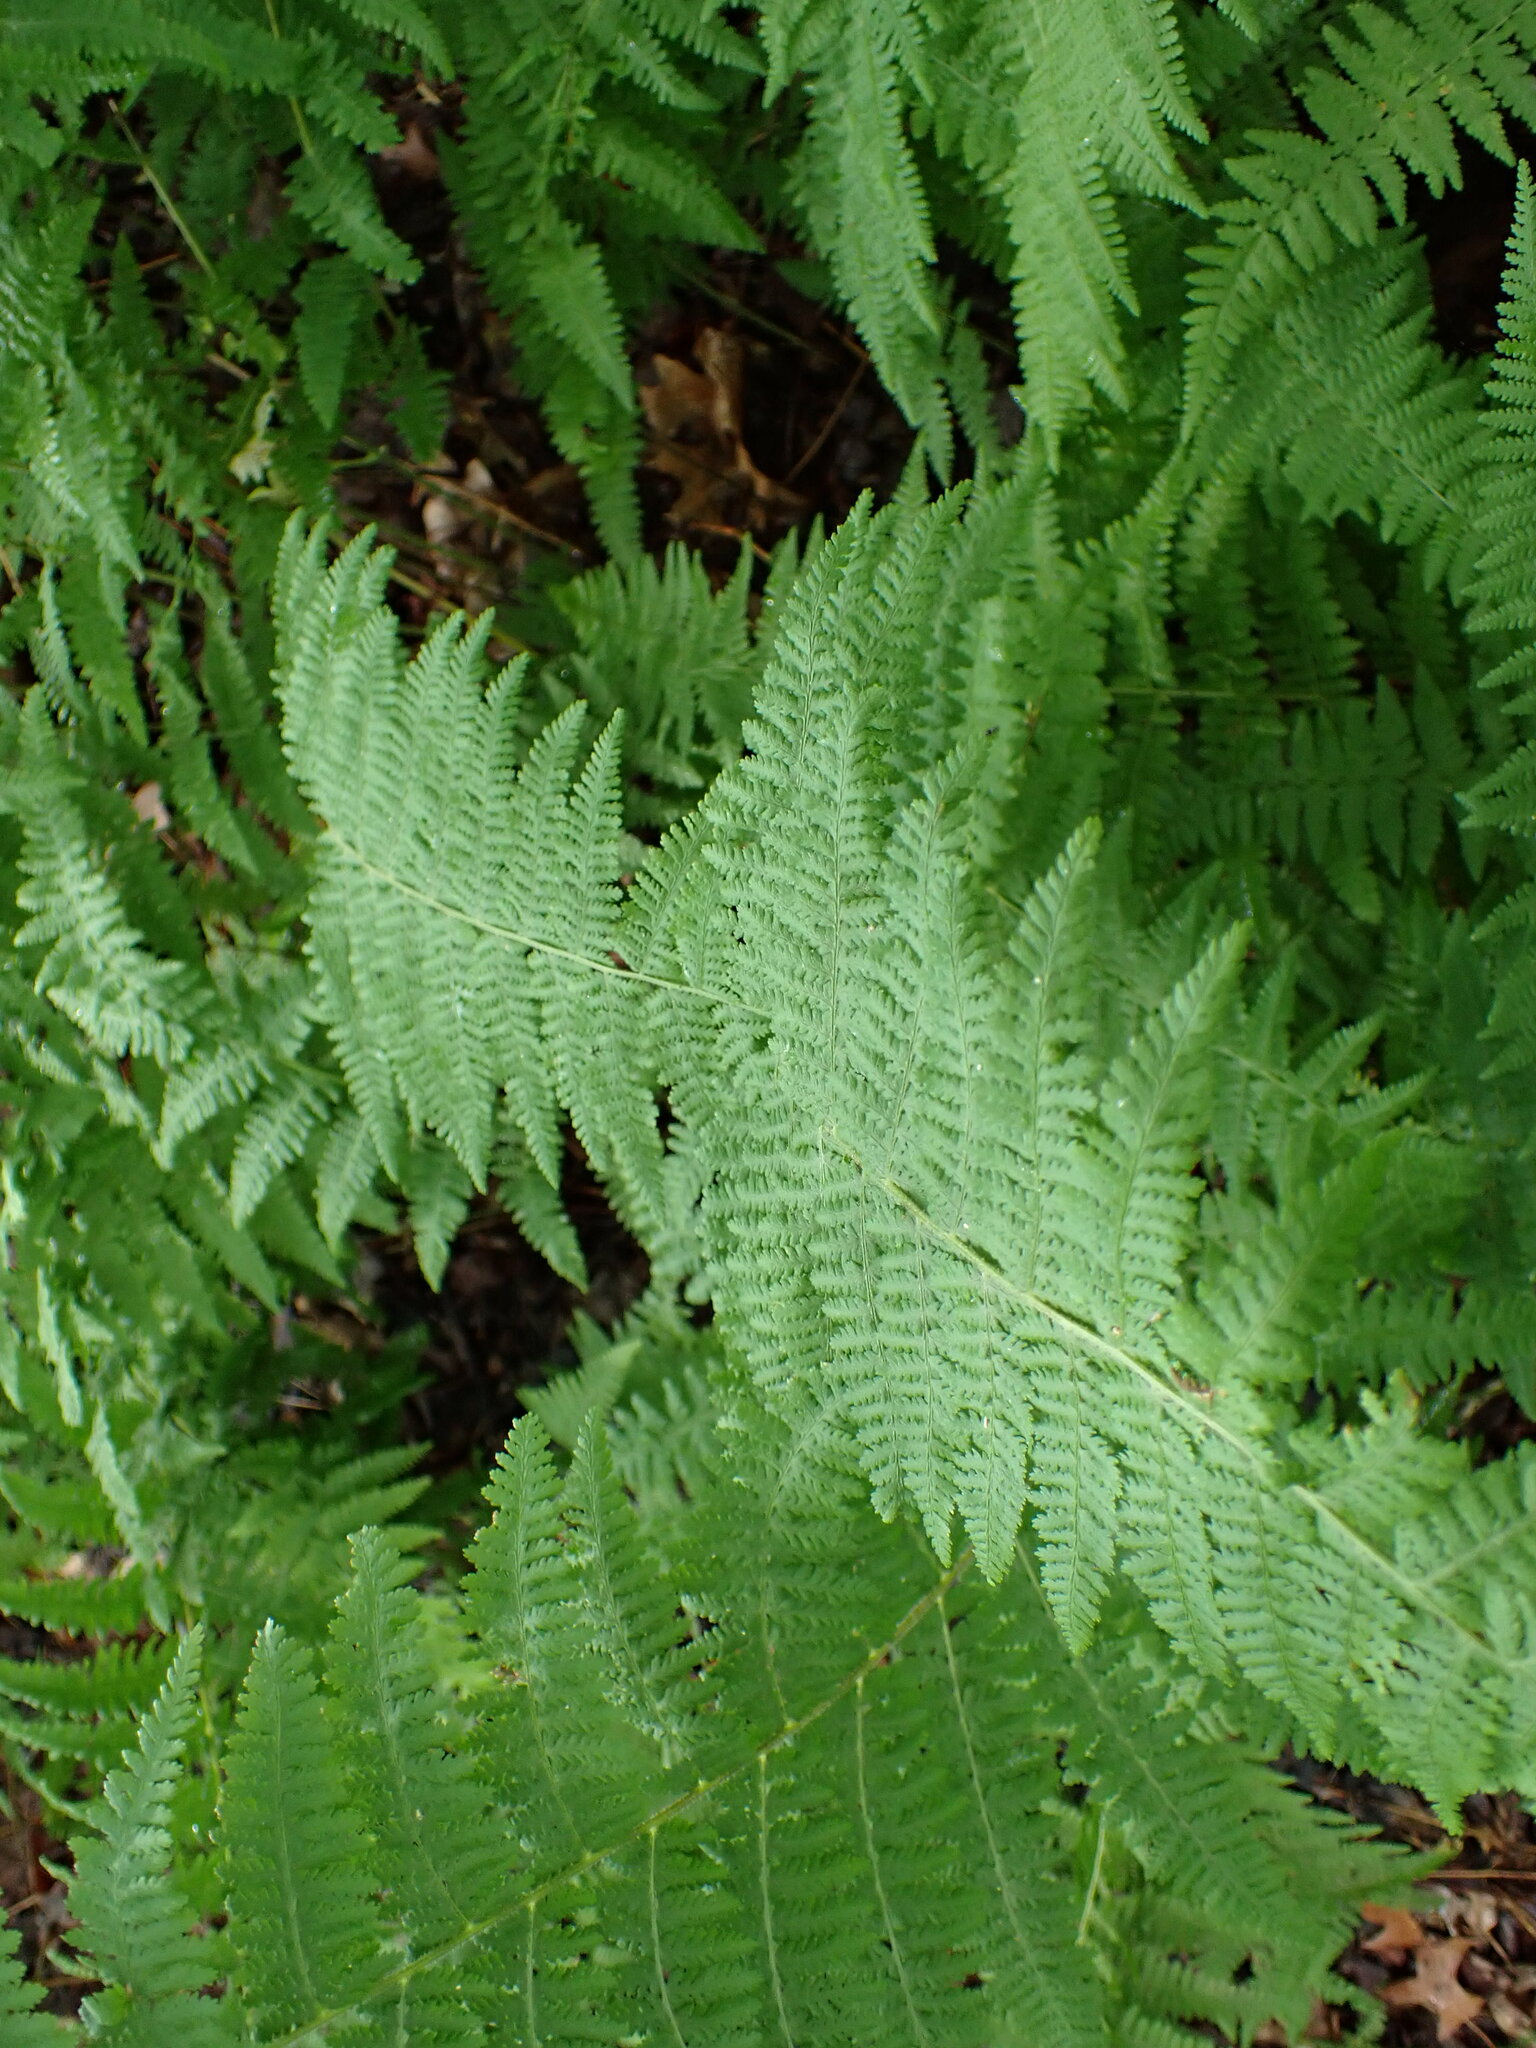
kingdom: Plantae
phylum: Tracheophyta
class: Polypodiopsida
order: Polypodiales
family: Dennstaedtiaceae
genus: Sitobolium
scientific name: Sitobolium punctilobum
